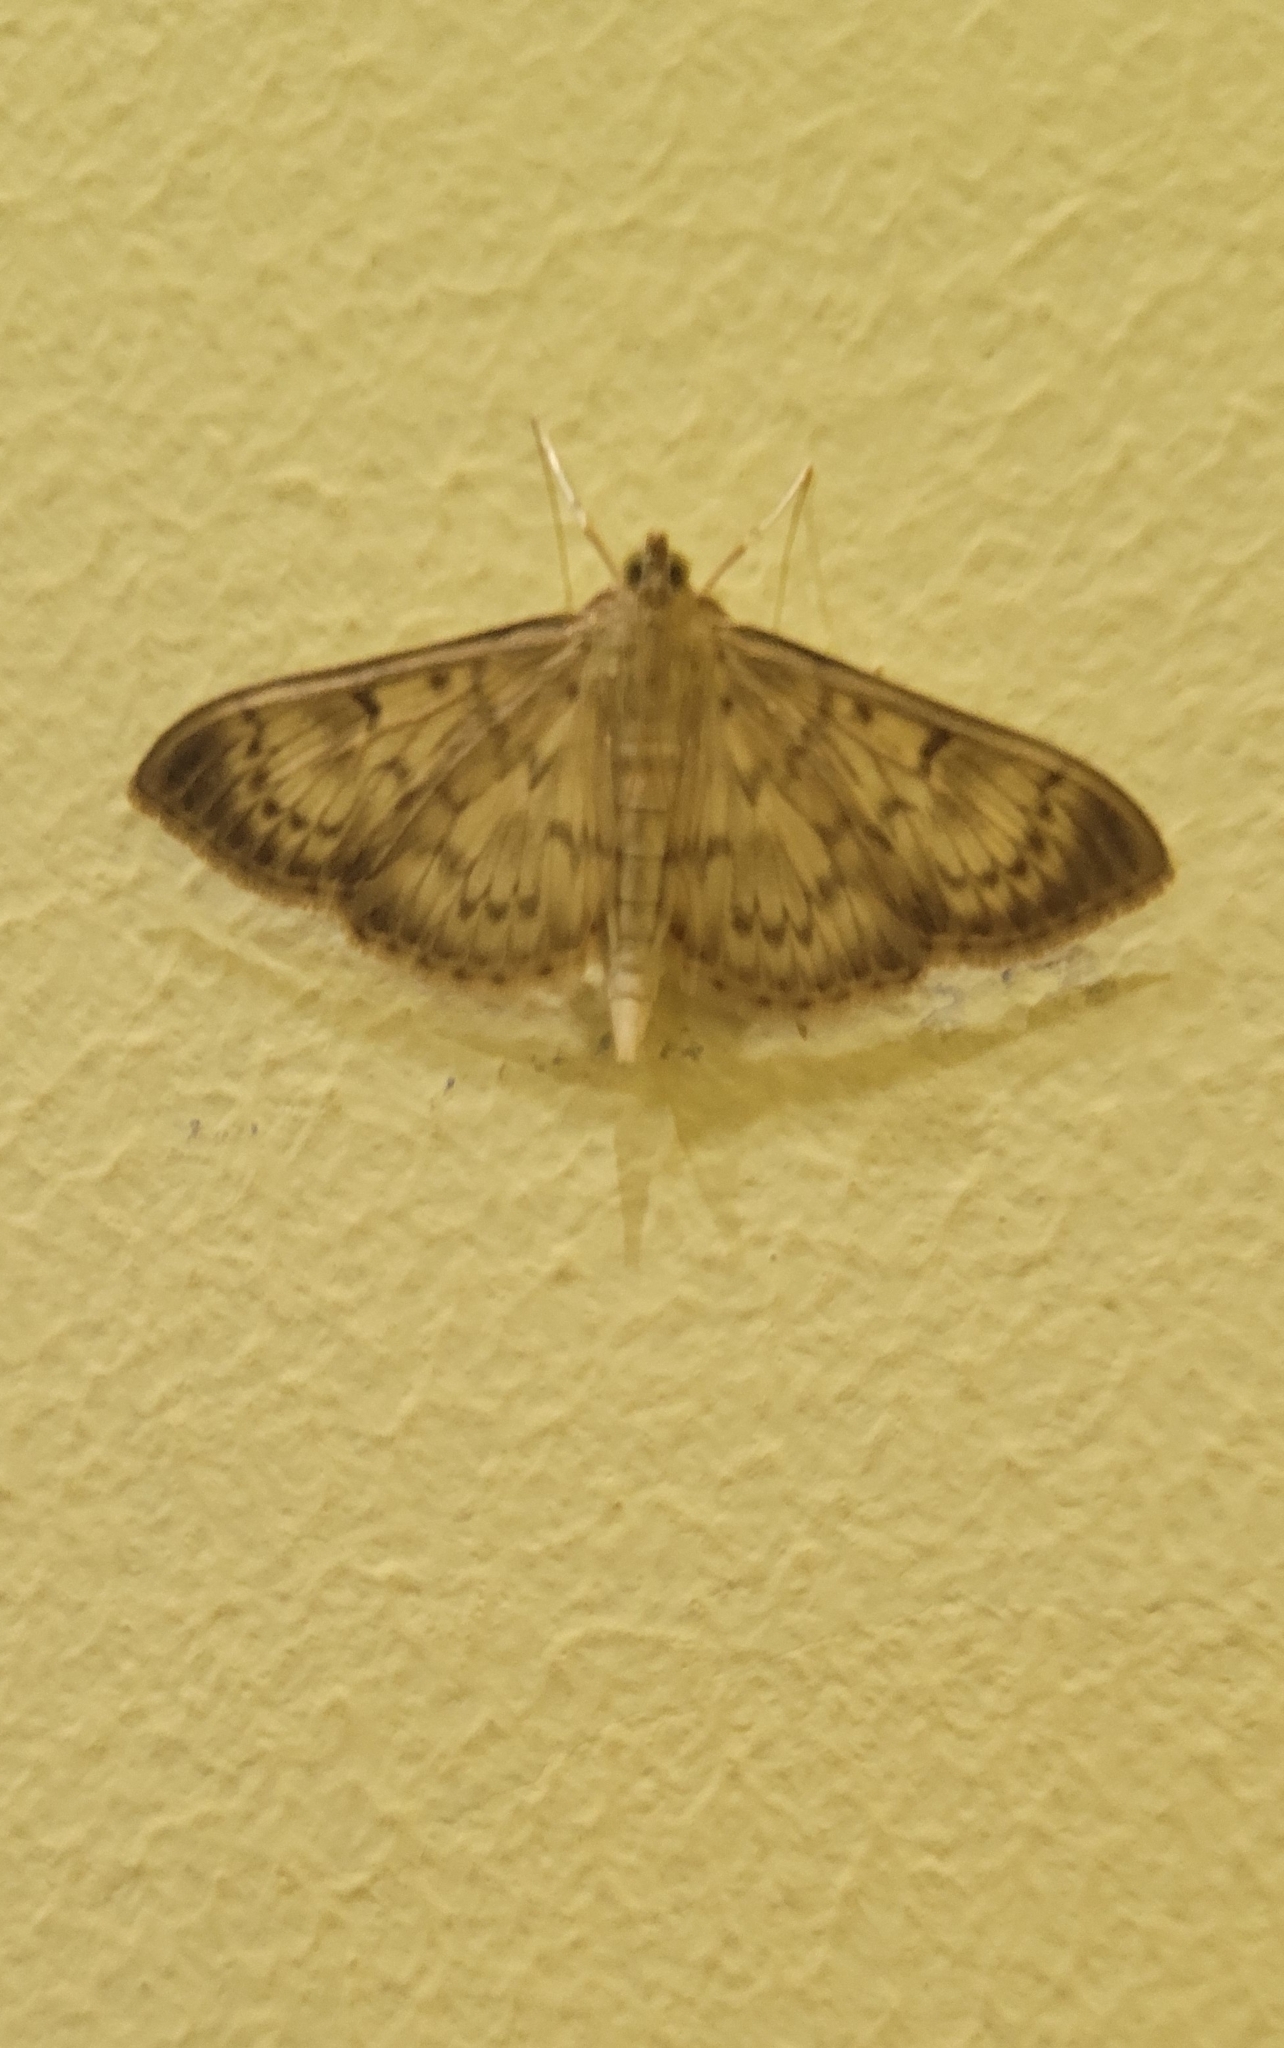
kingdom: Animalia
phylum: Arthropoda
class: Insecta
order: Lepidoptera
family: Crambidae
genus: Patania
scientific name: Patania ruralis
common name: Mother of pearl
